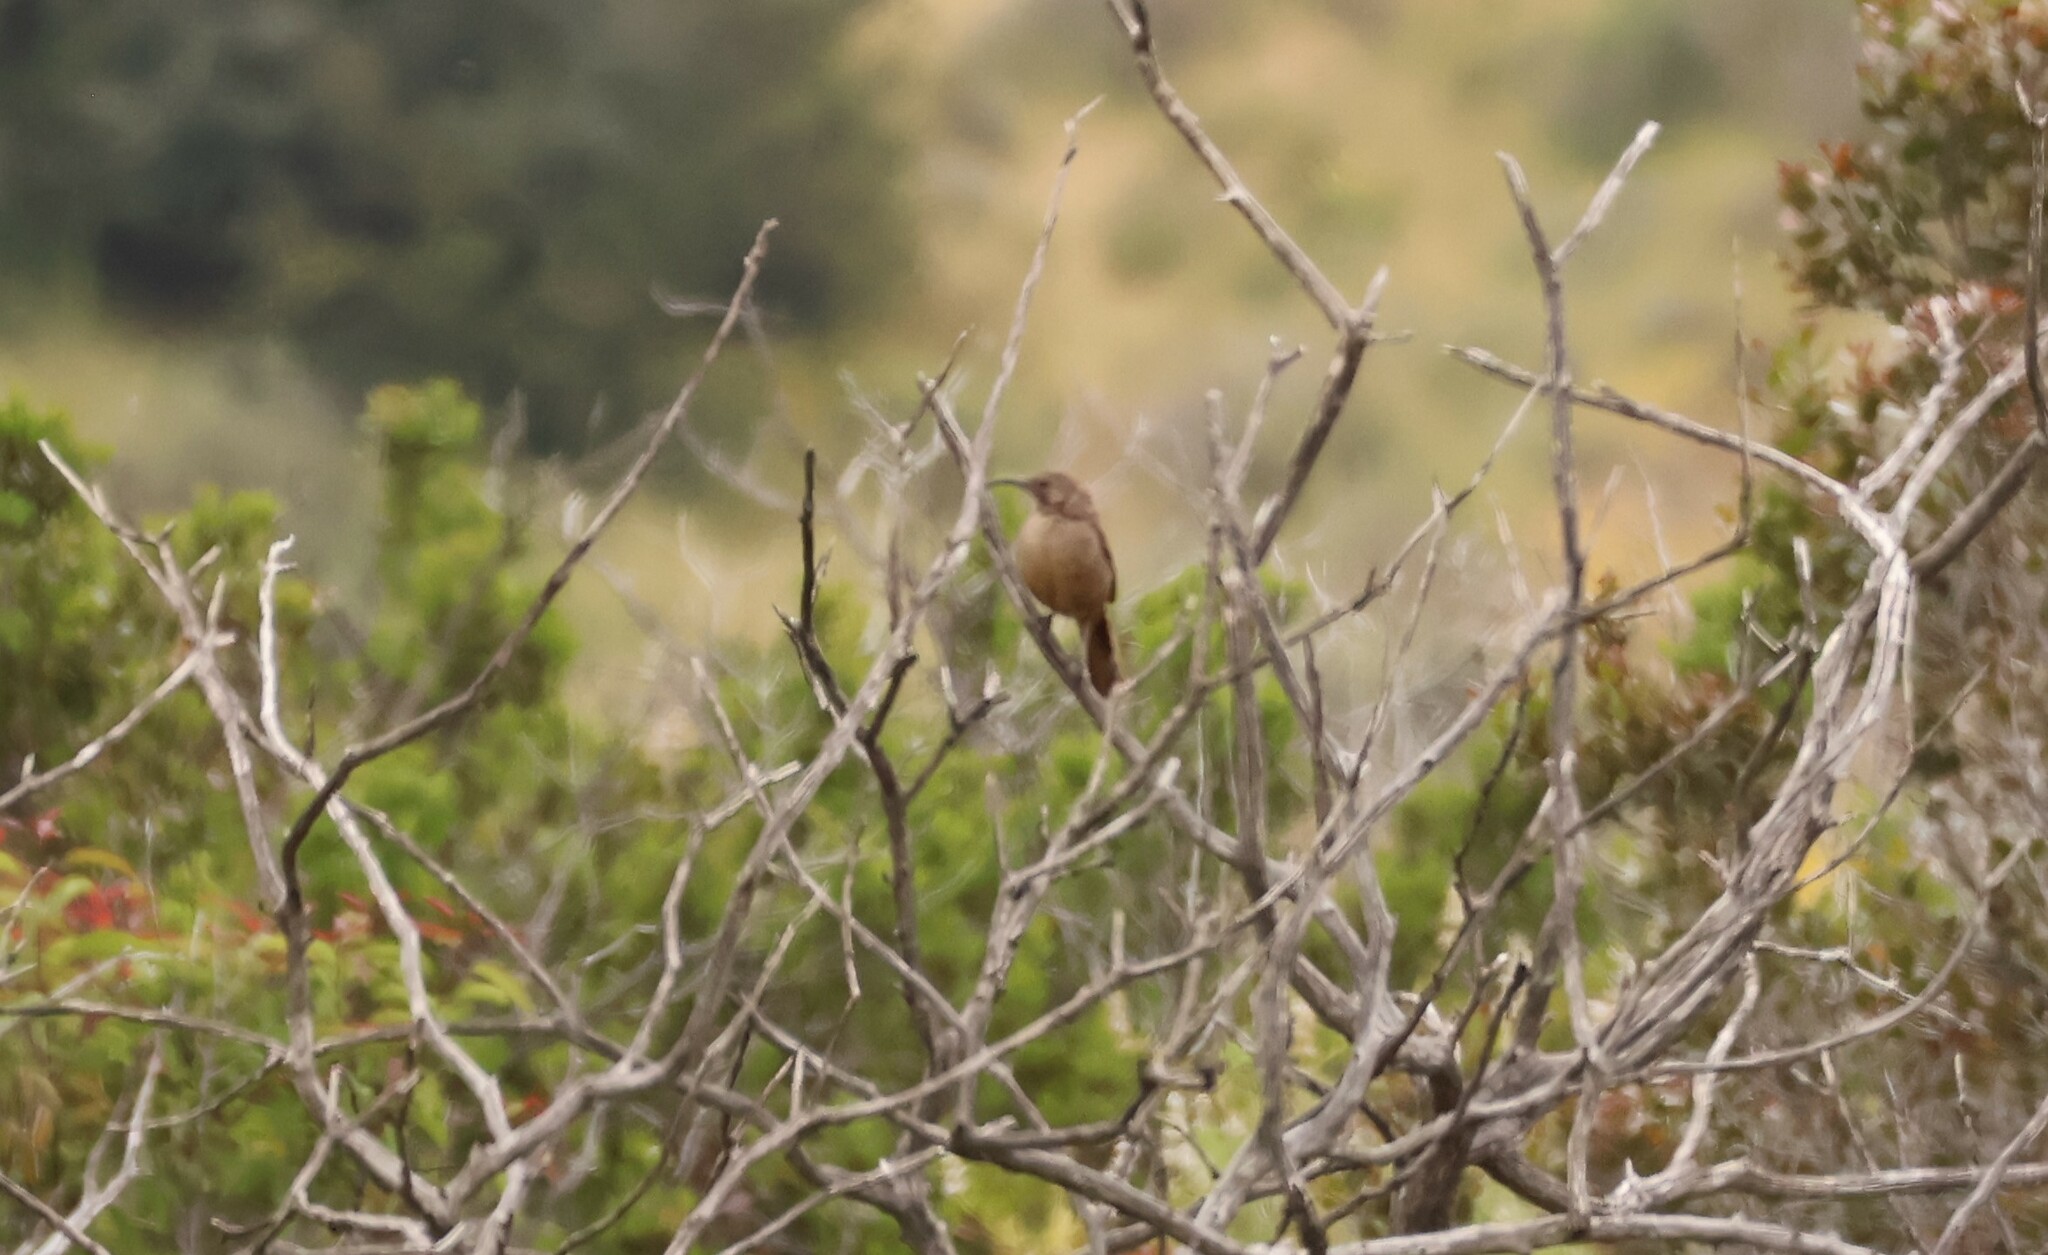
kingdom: Animalia
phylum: Chordata
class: Aves
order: Passeriformes
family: Mimidae
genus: Toxostoma
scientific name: Toxostoma redivivum
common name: California thrasher
